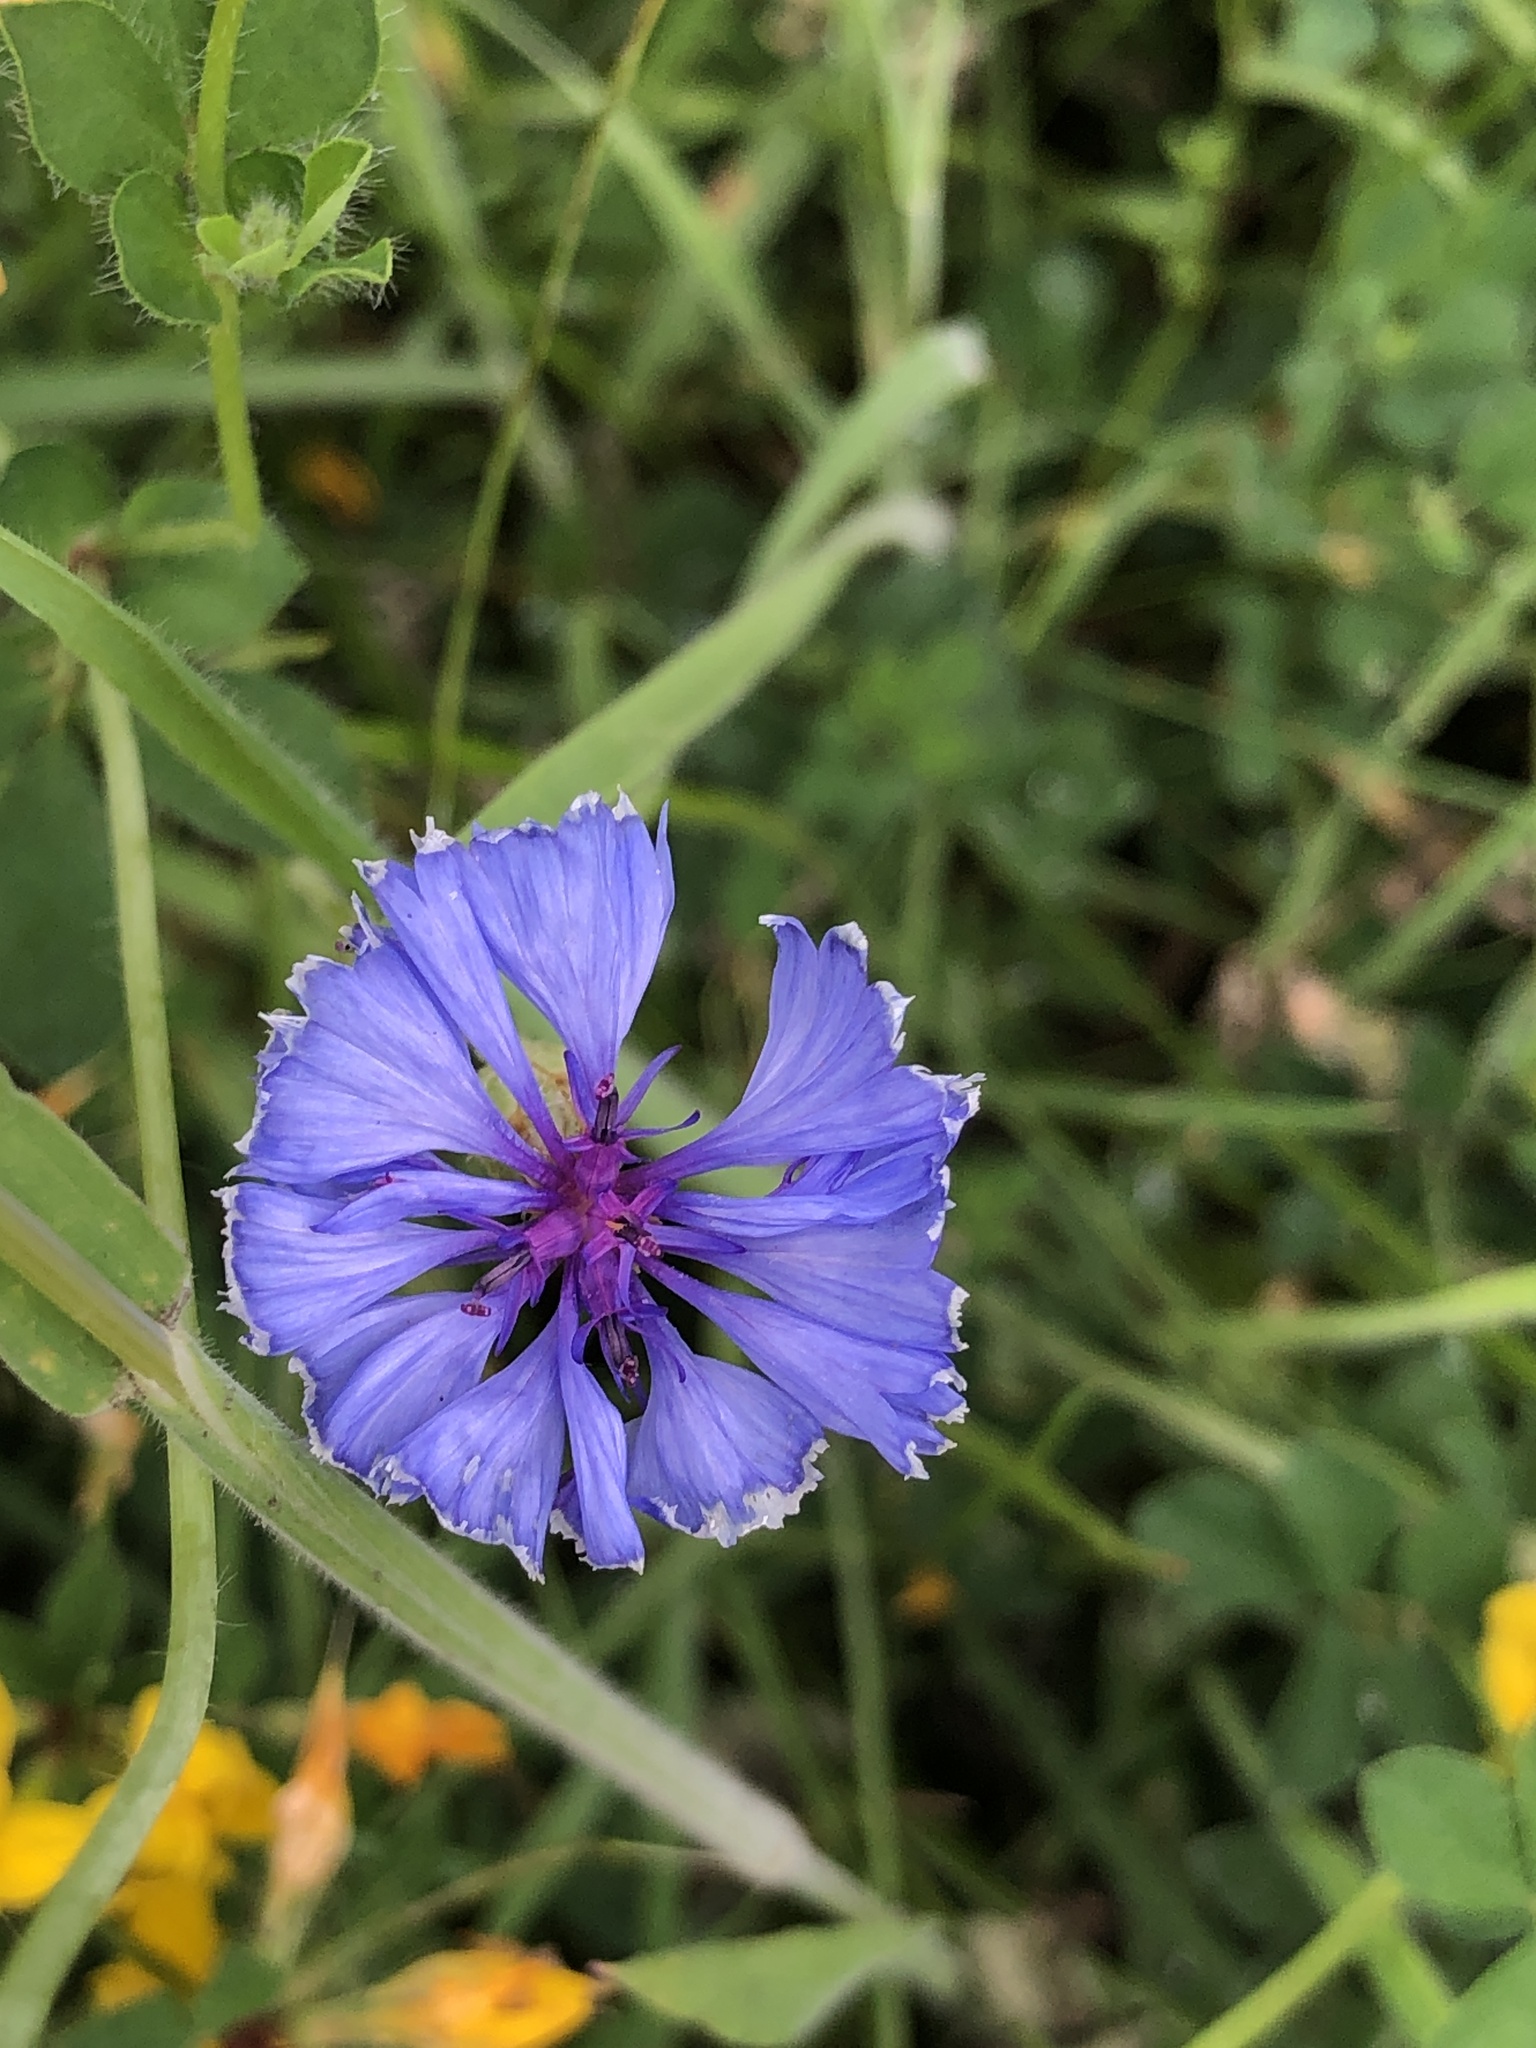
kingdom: Plantae
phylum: Tracheophyta
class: Magnoliopsida
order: Asterales
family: Asteraceae
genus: Centaurea
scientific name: Centaurea cyanus
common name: Cornflower
